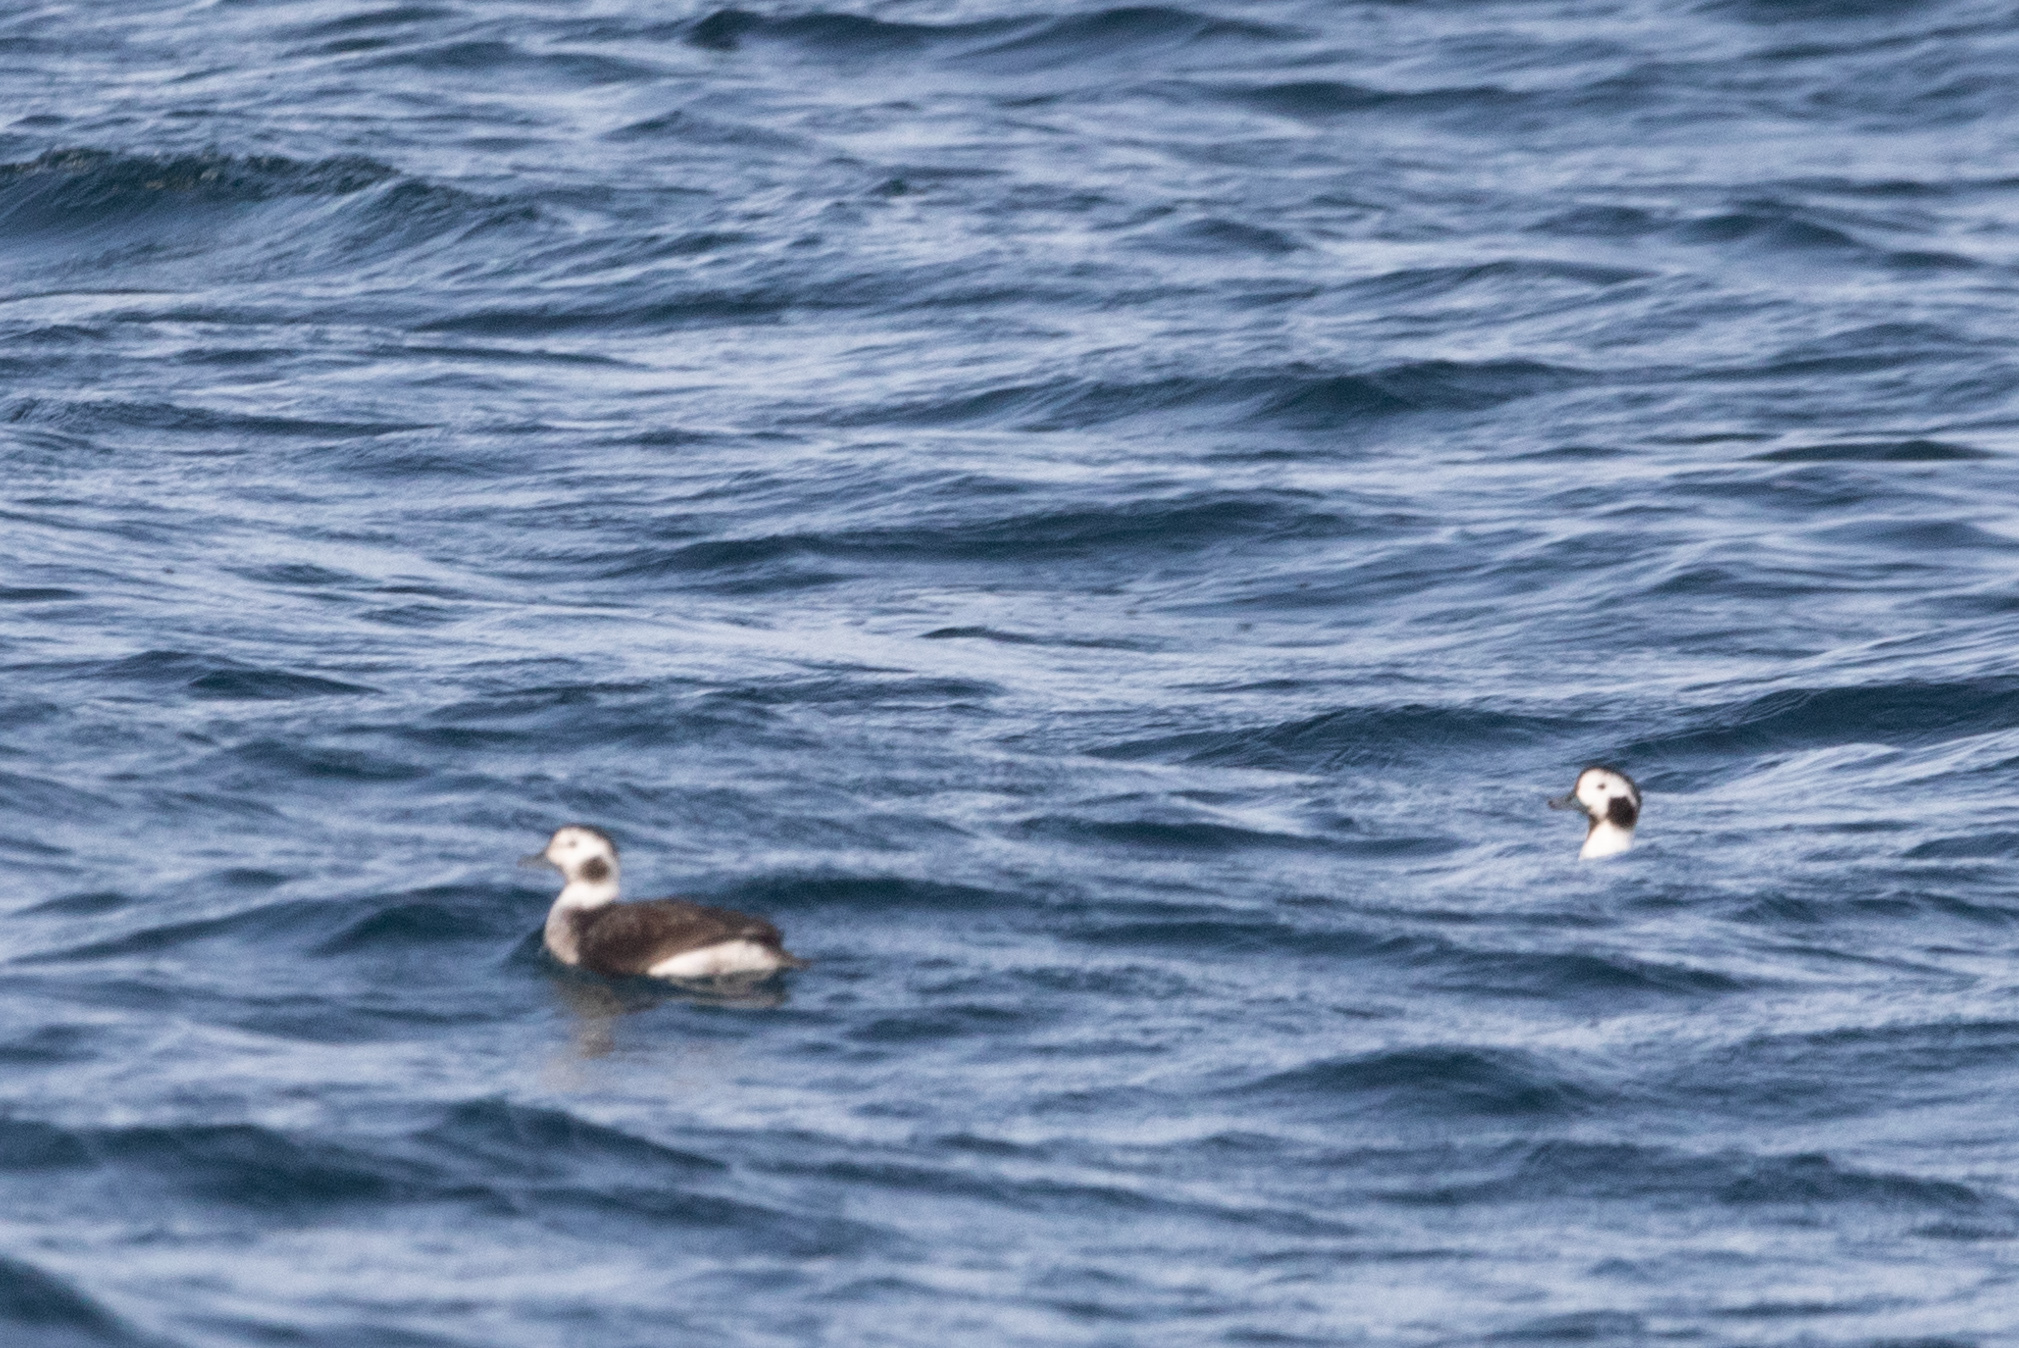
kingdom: Animalia
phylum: Chordata
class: Aves
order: Anseriformes
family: Anatidae
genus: Clangula
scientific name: Clangula hyemalis
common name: Long-tailed duck
